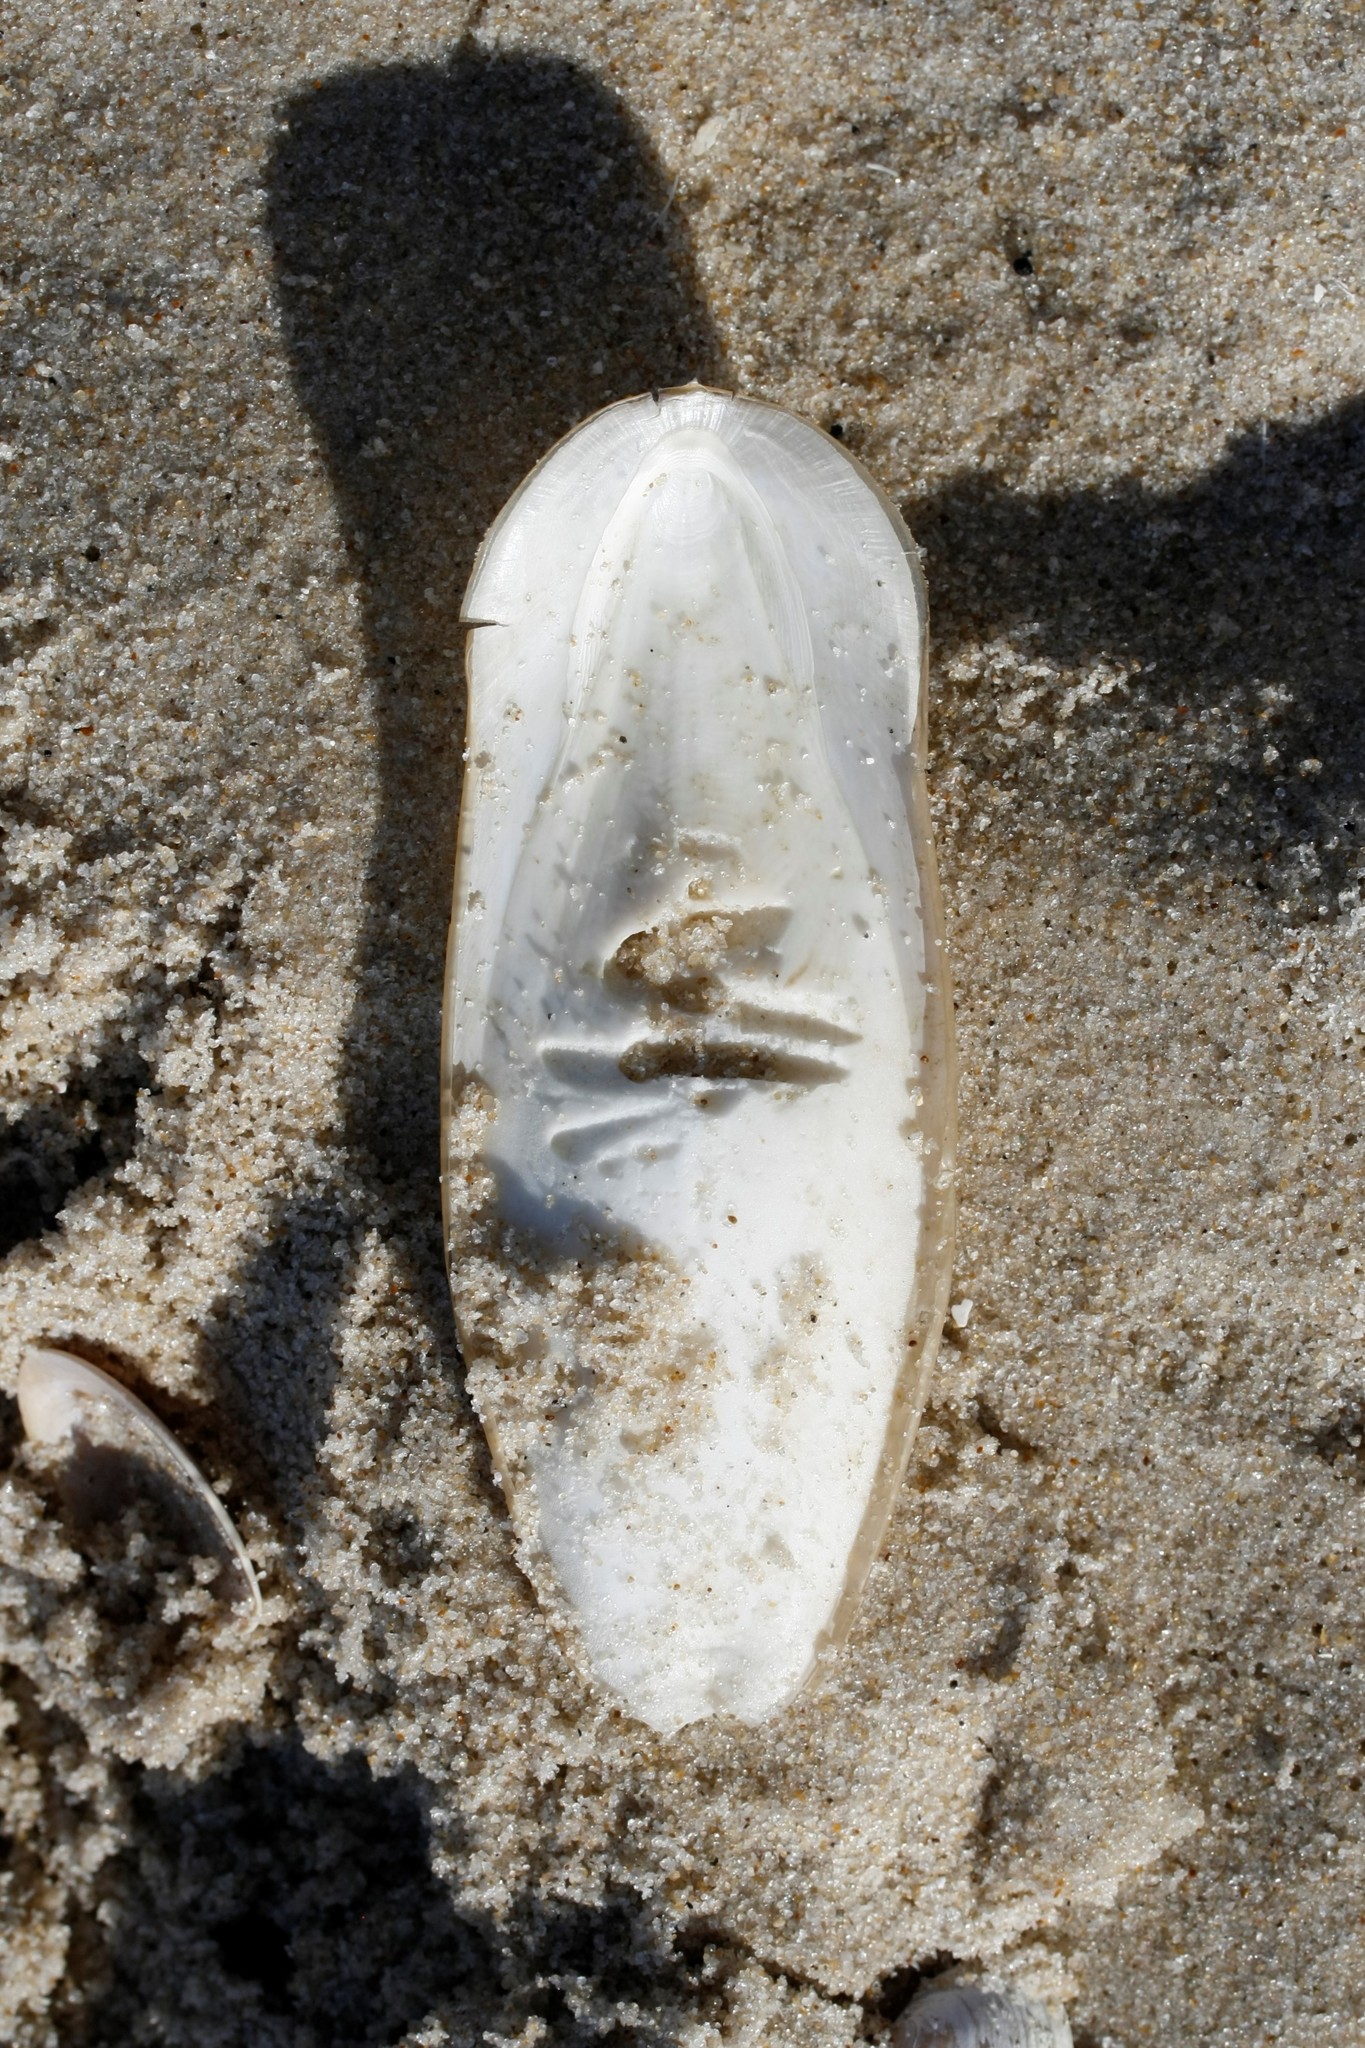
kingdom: Animalia
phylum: Mollusca
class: Cephalopoda
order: Sepiida
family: Sepiidae
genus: Sepia
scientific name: Sepia officinalis
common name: Common cuttlefish
